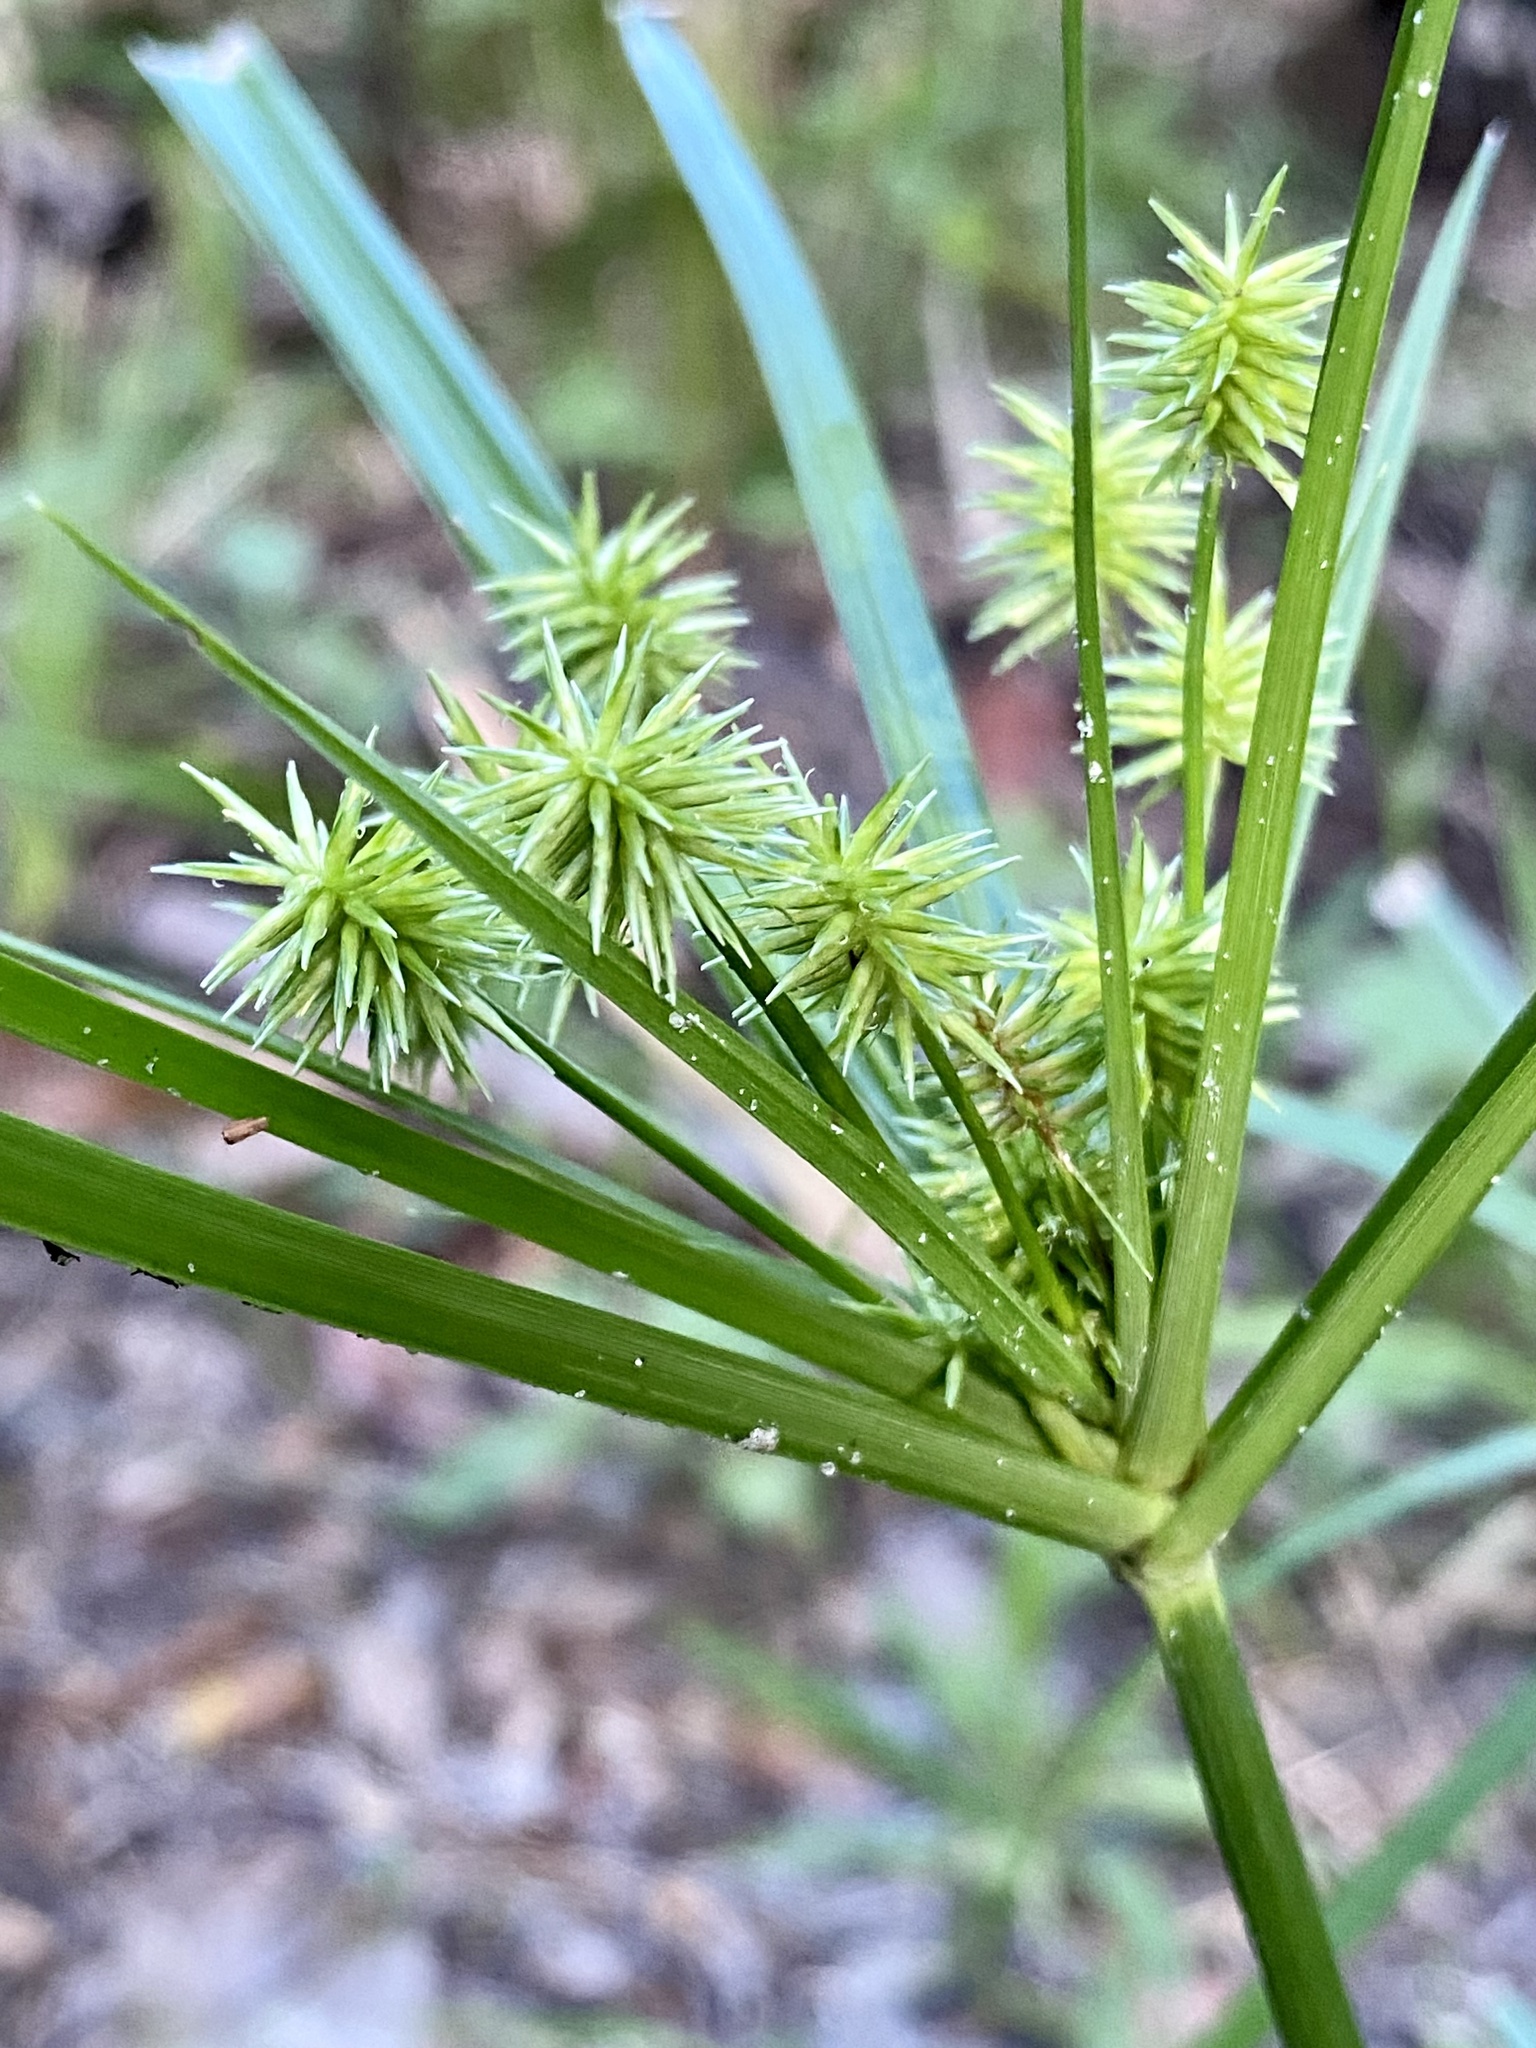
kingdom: Plantae
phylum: Tracheophyta
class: Liliopsida
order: Poales
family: Cyperaceae
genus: Cyperus
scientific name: Cyperus croceus
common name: Baldwin's flatsedge
